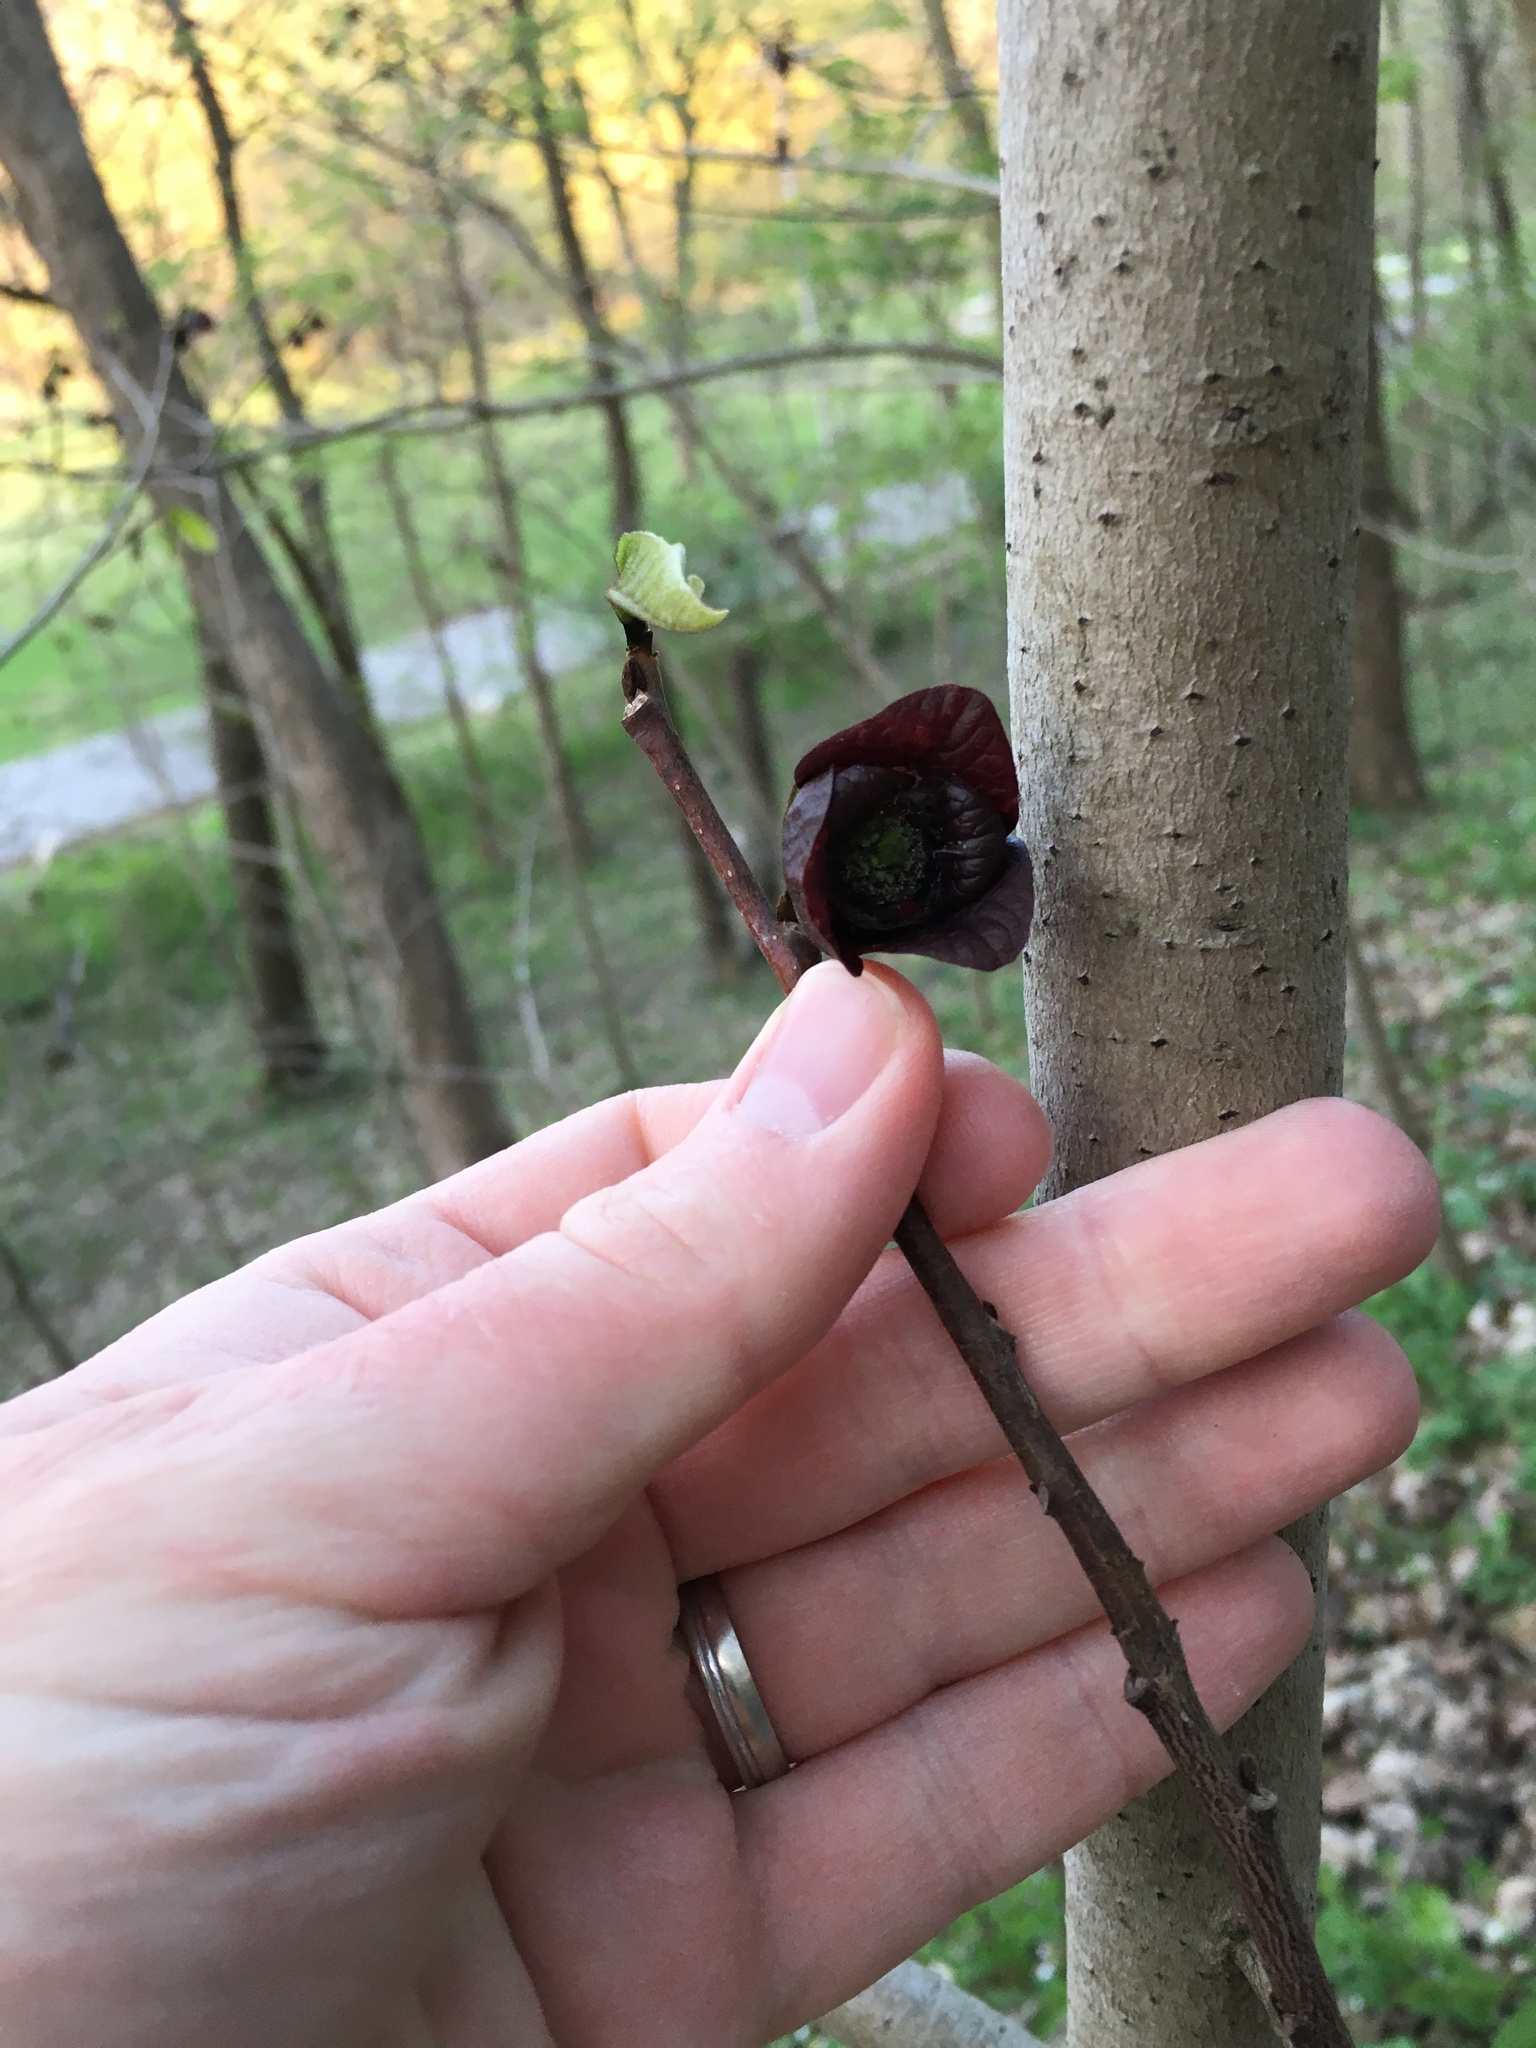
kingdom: Plantae
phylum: Tracheophyta
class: Magnoliopsida
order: Magnoliales
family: Annonaceae
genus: Asimina
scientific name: Asimina triloba
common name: Dog-banana
